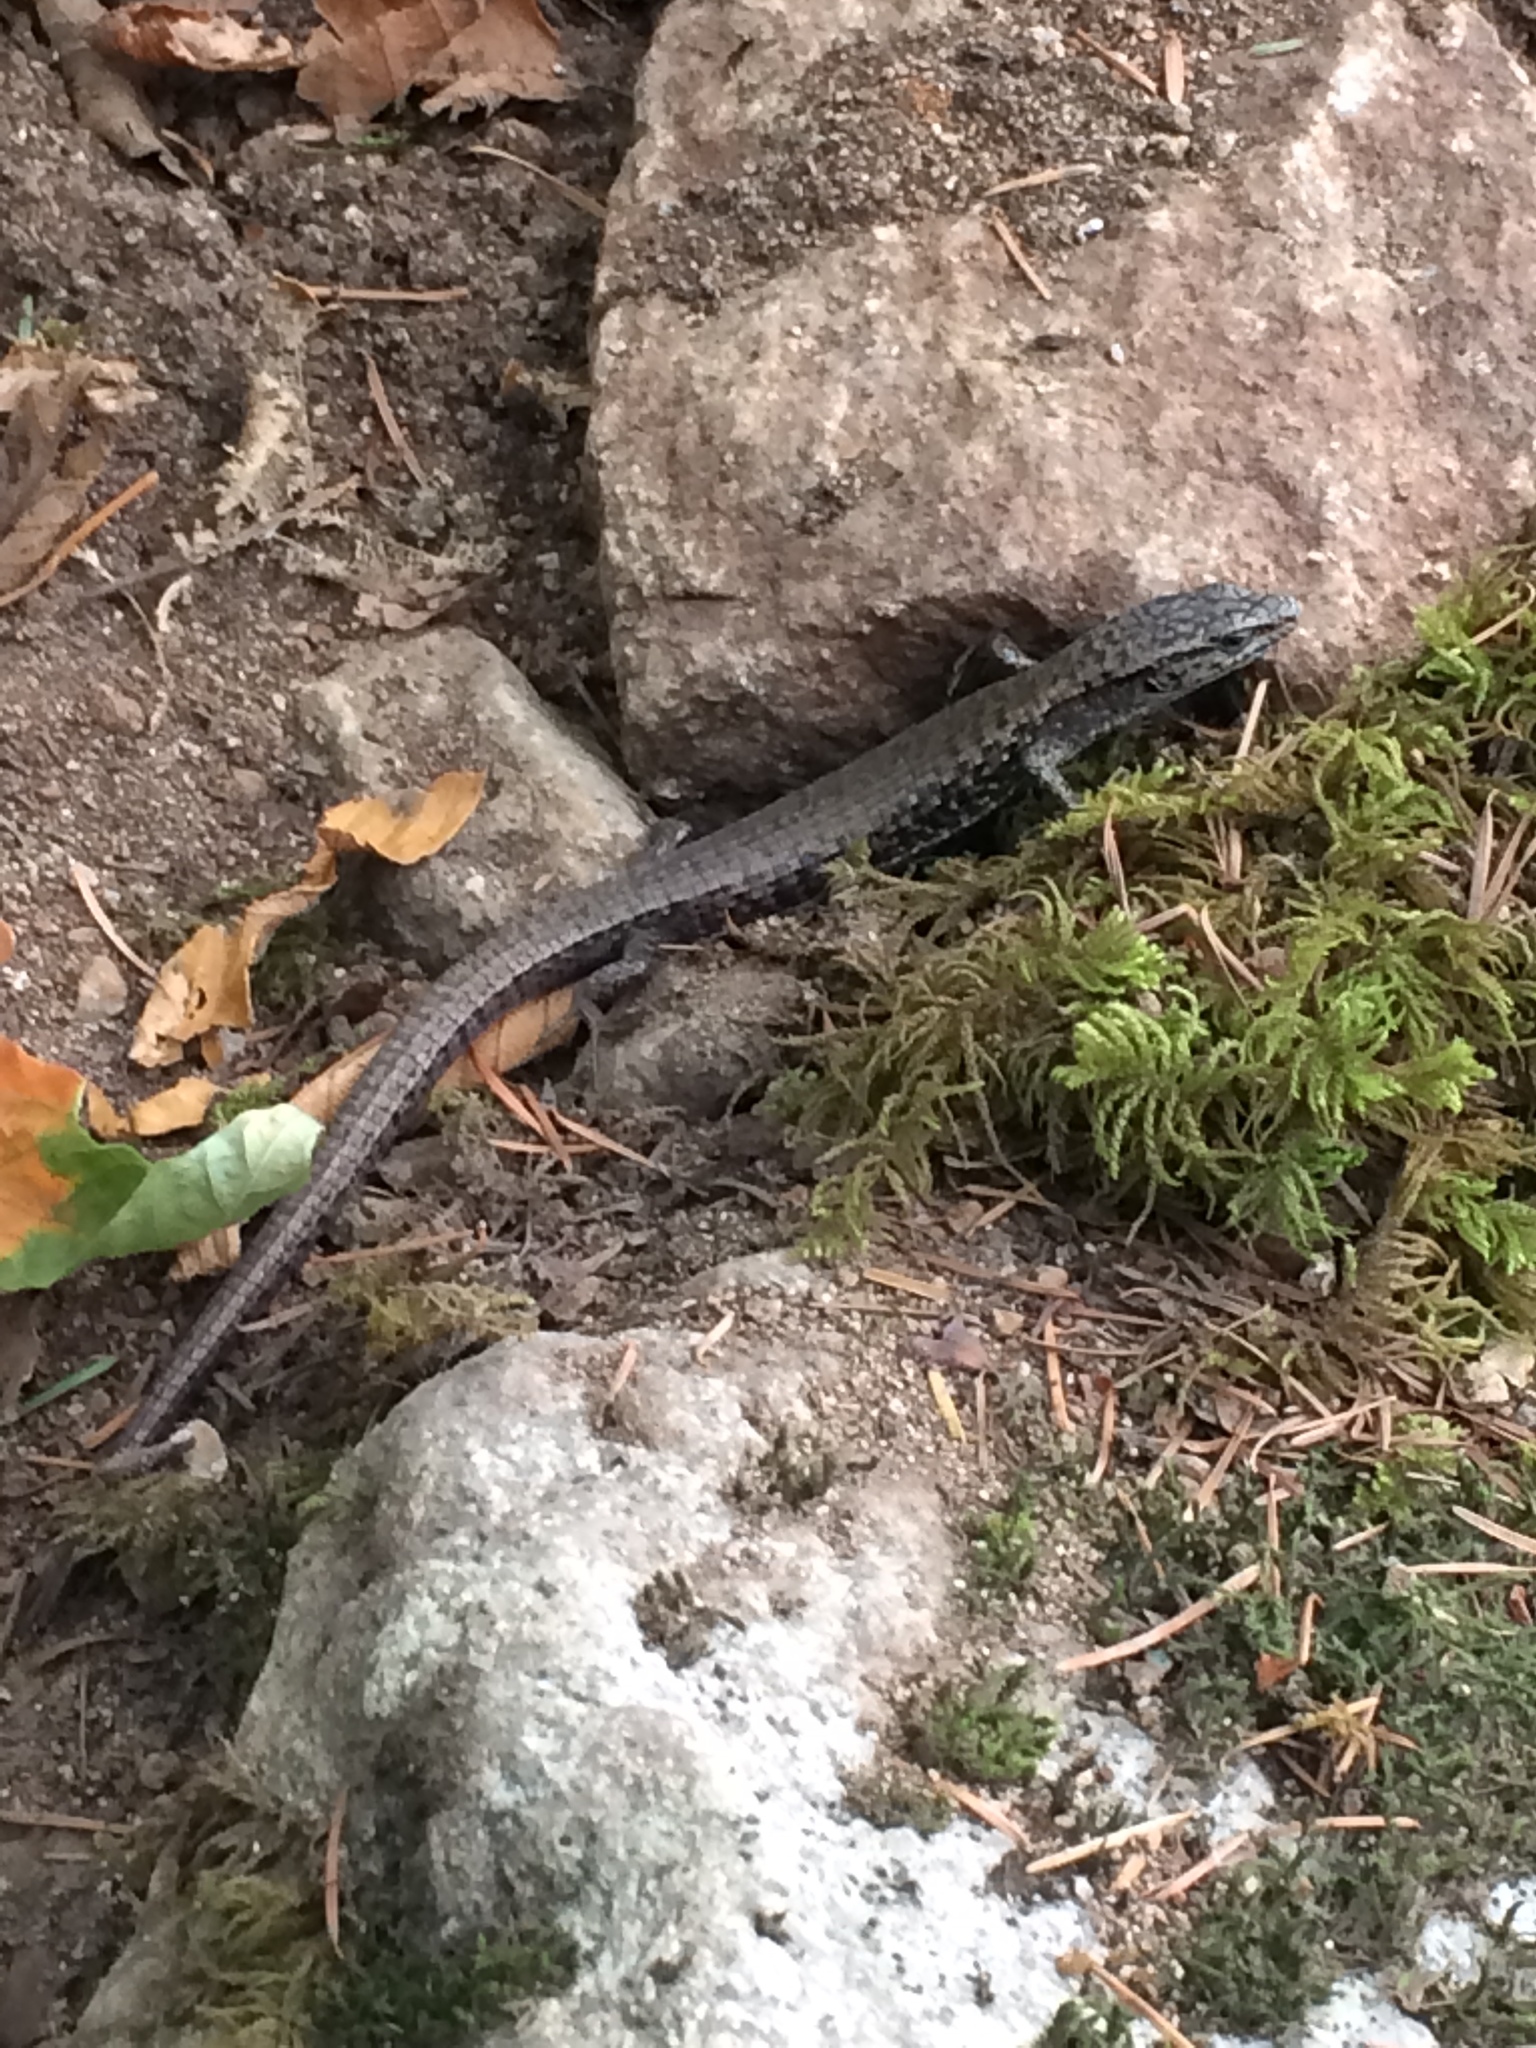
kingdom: Animalia
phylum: Chordata
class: Squamata
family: Anguidae
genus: Elgaria
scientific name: Elgaria coerulea
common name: Northern alligator lizard
